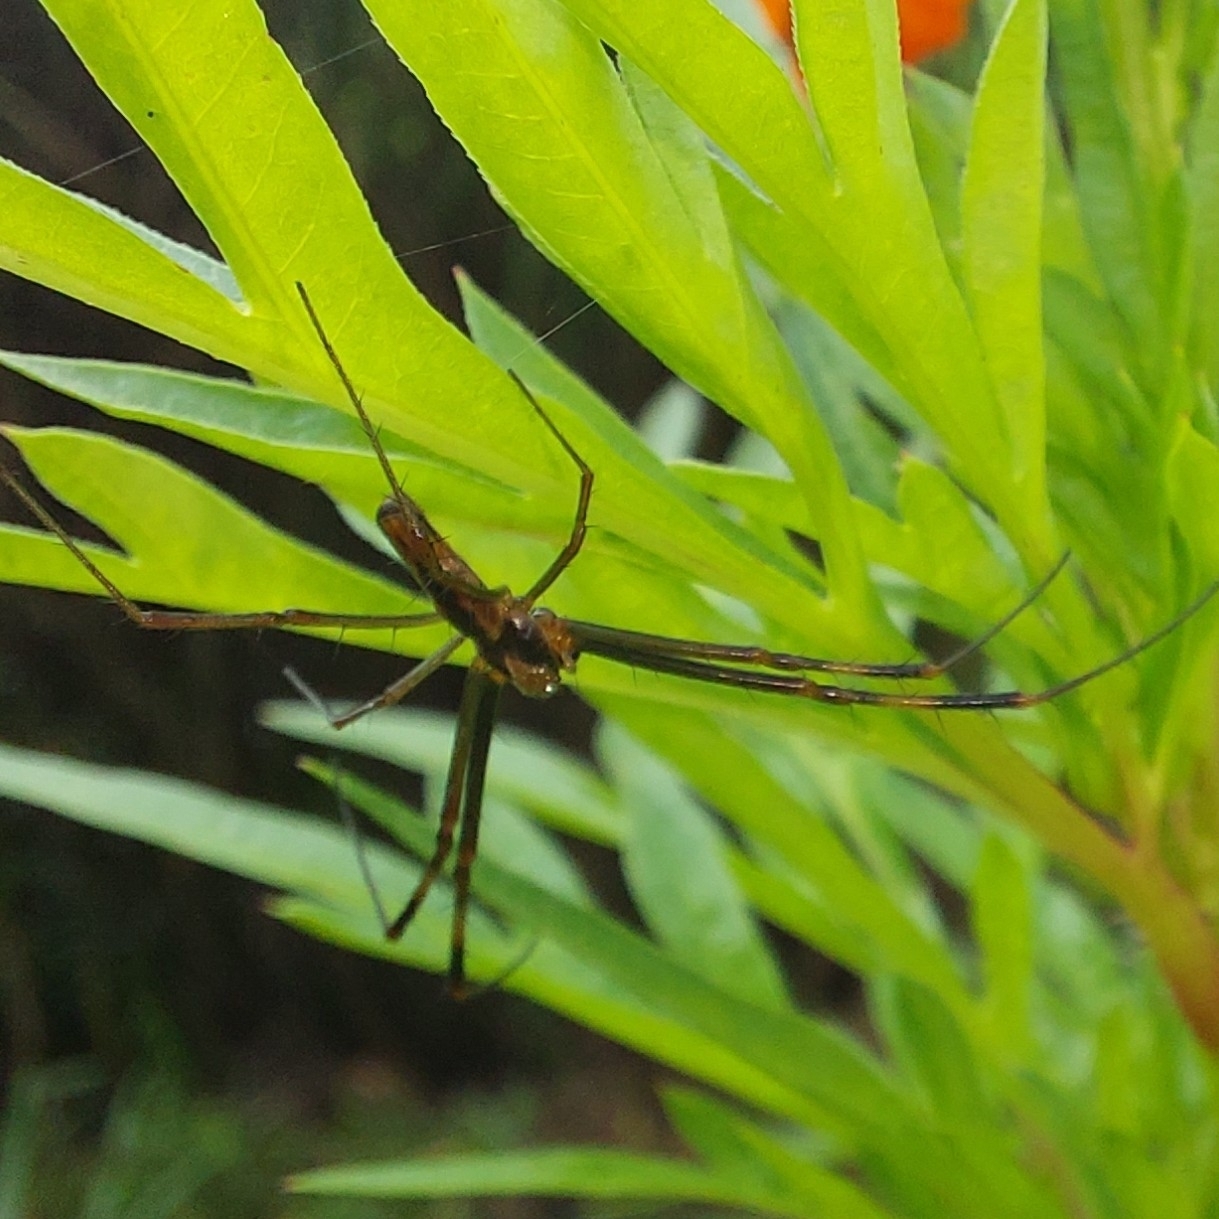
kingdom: Animalia
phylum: Arthropoda
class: Arachnida
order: Araneae
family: Araneidae
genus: Trichonephila
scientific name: Trichonephila clavipes
